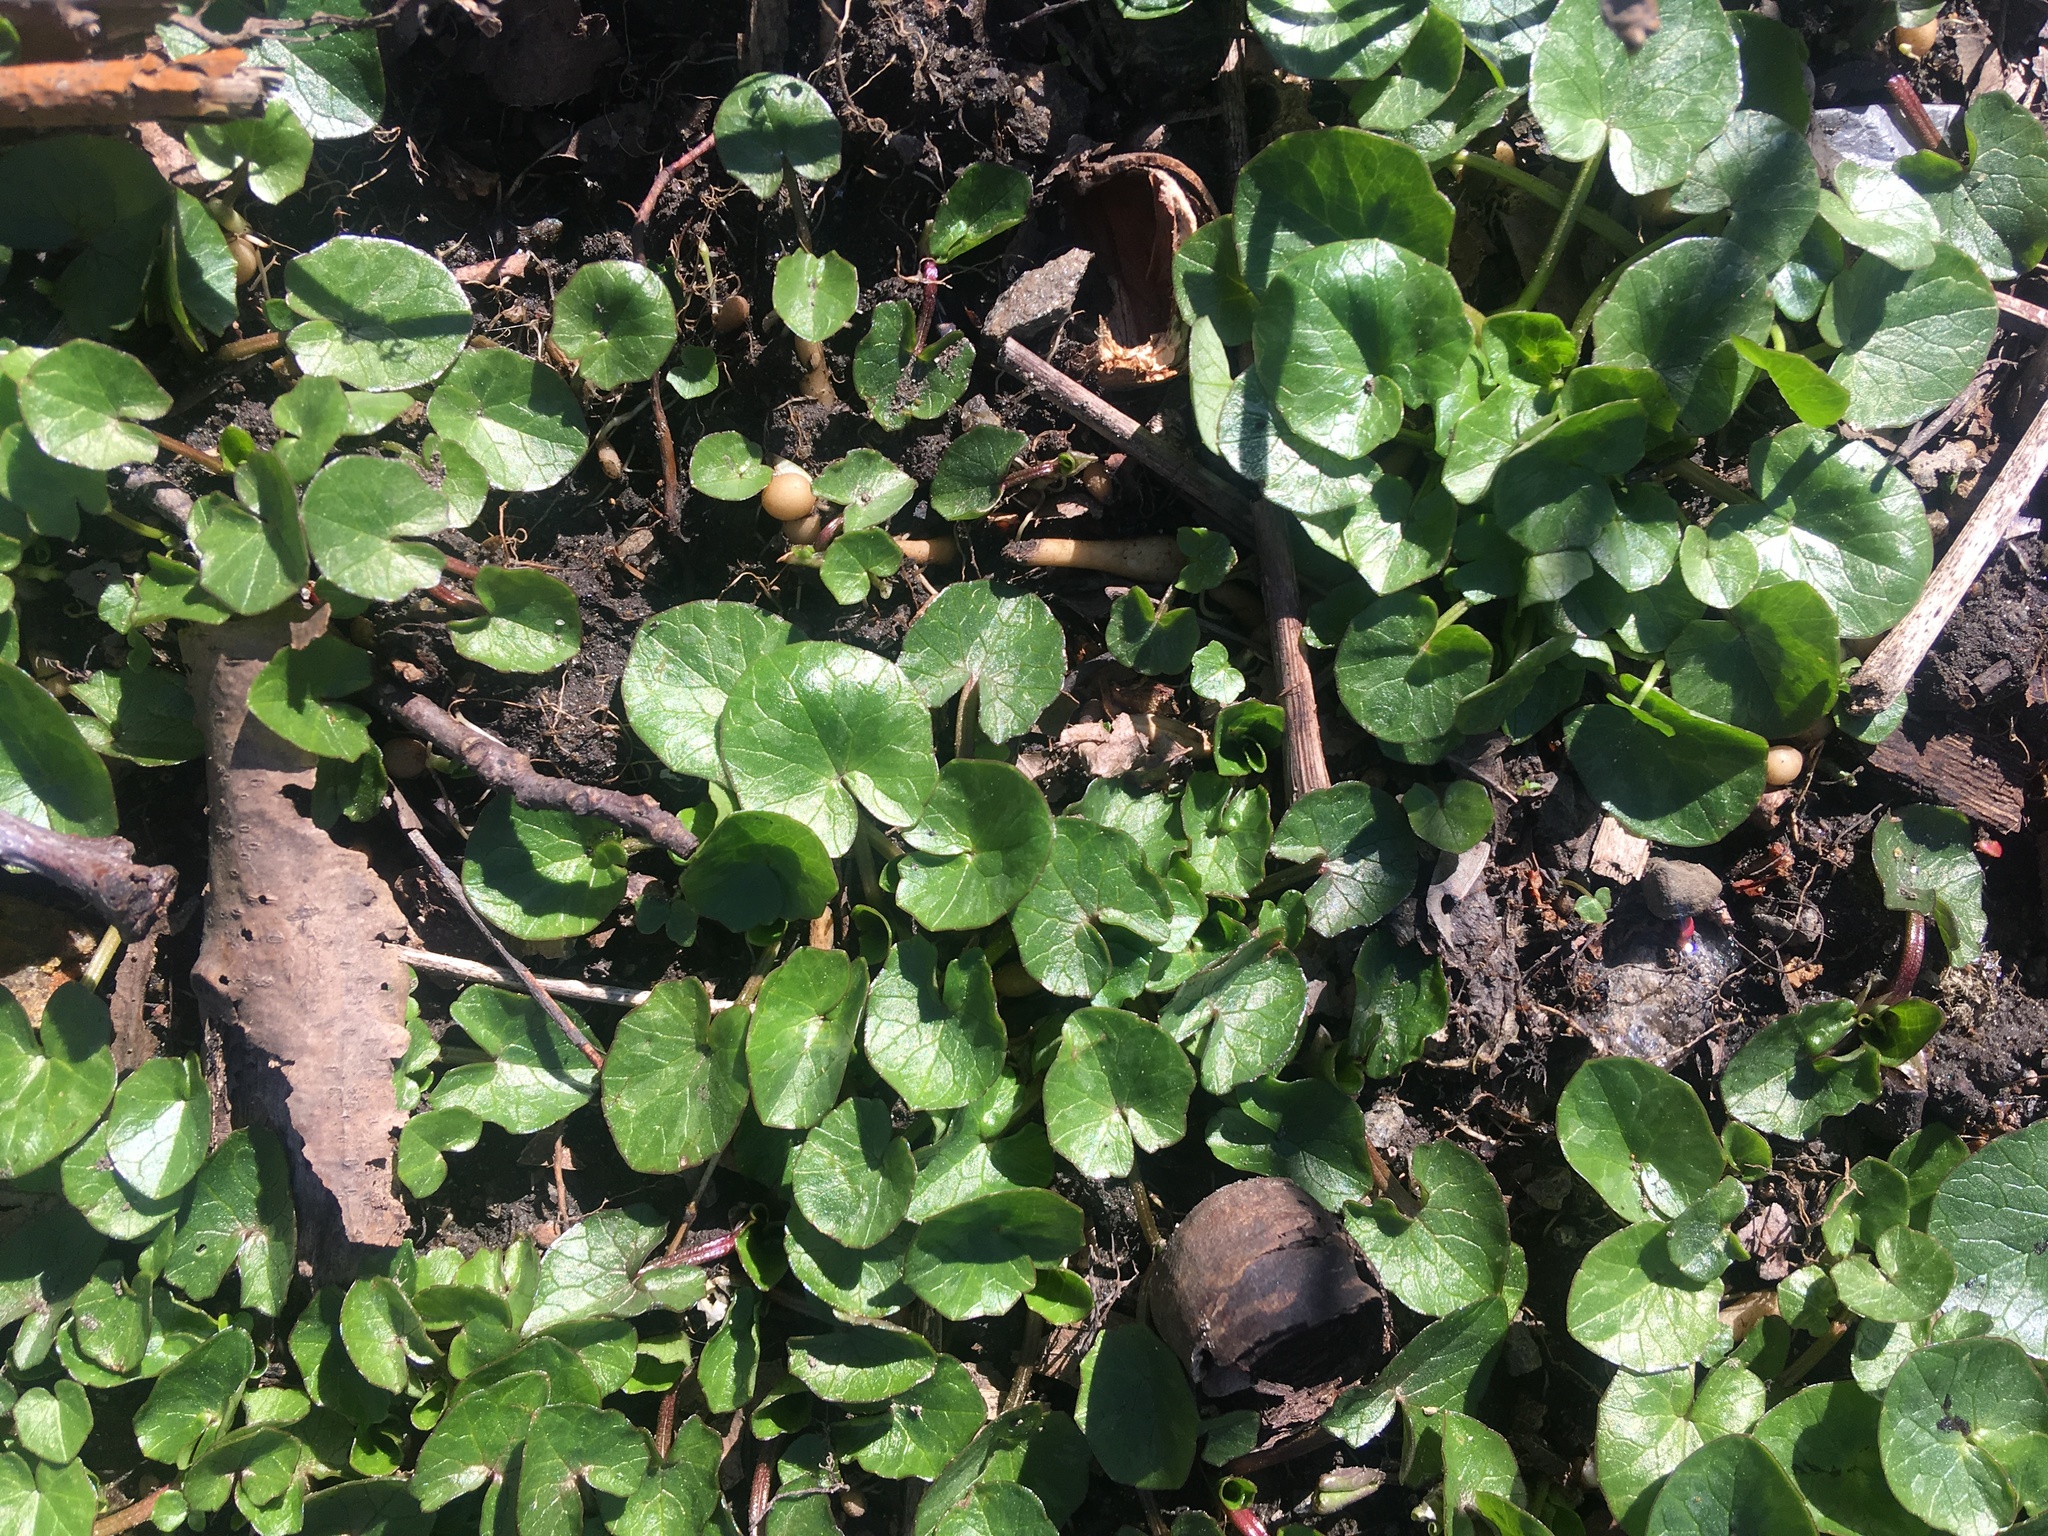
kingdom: Plantae
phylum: Tracheophyta
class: Magnoliopsida
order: Ranunculales
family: Ranunculaceae
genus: Ficaria
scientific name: Ficaria verna
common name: Lesser celandine
